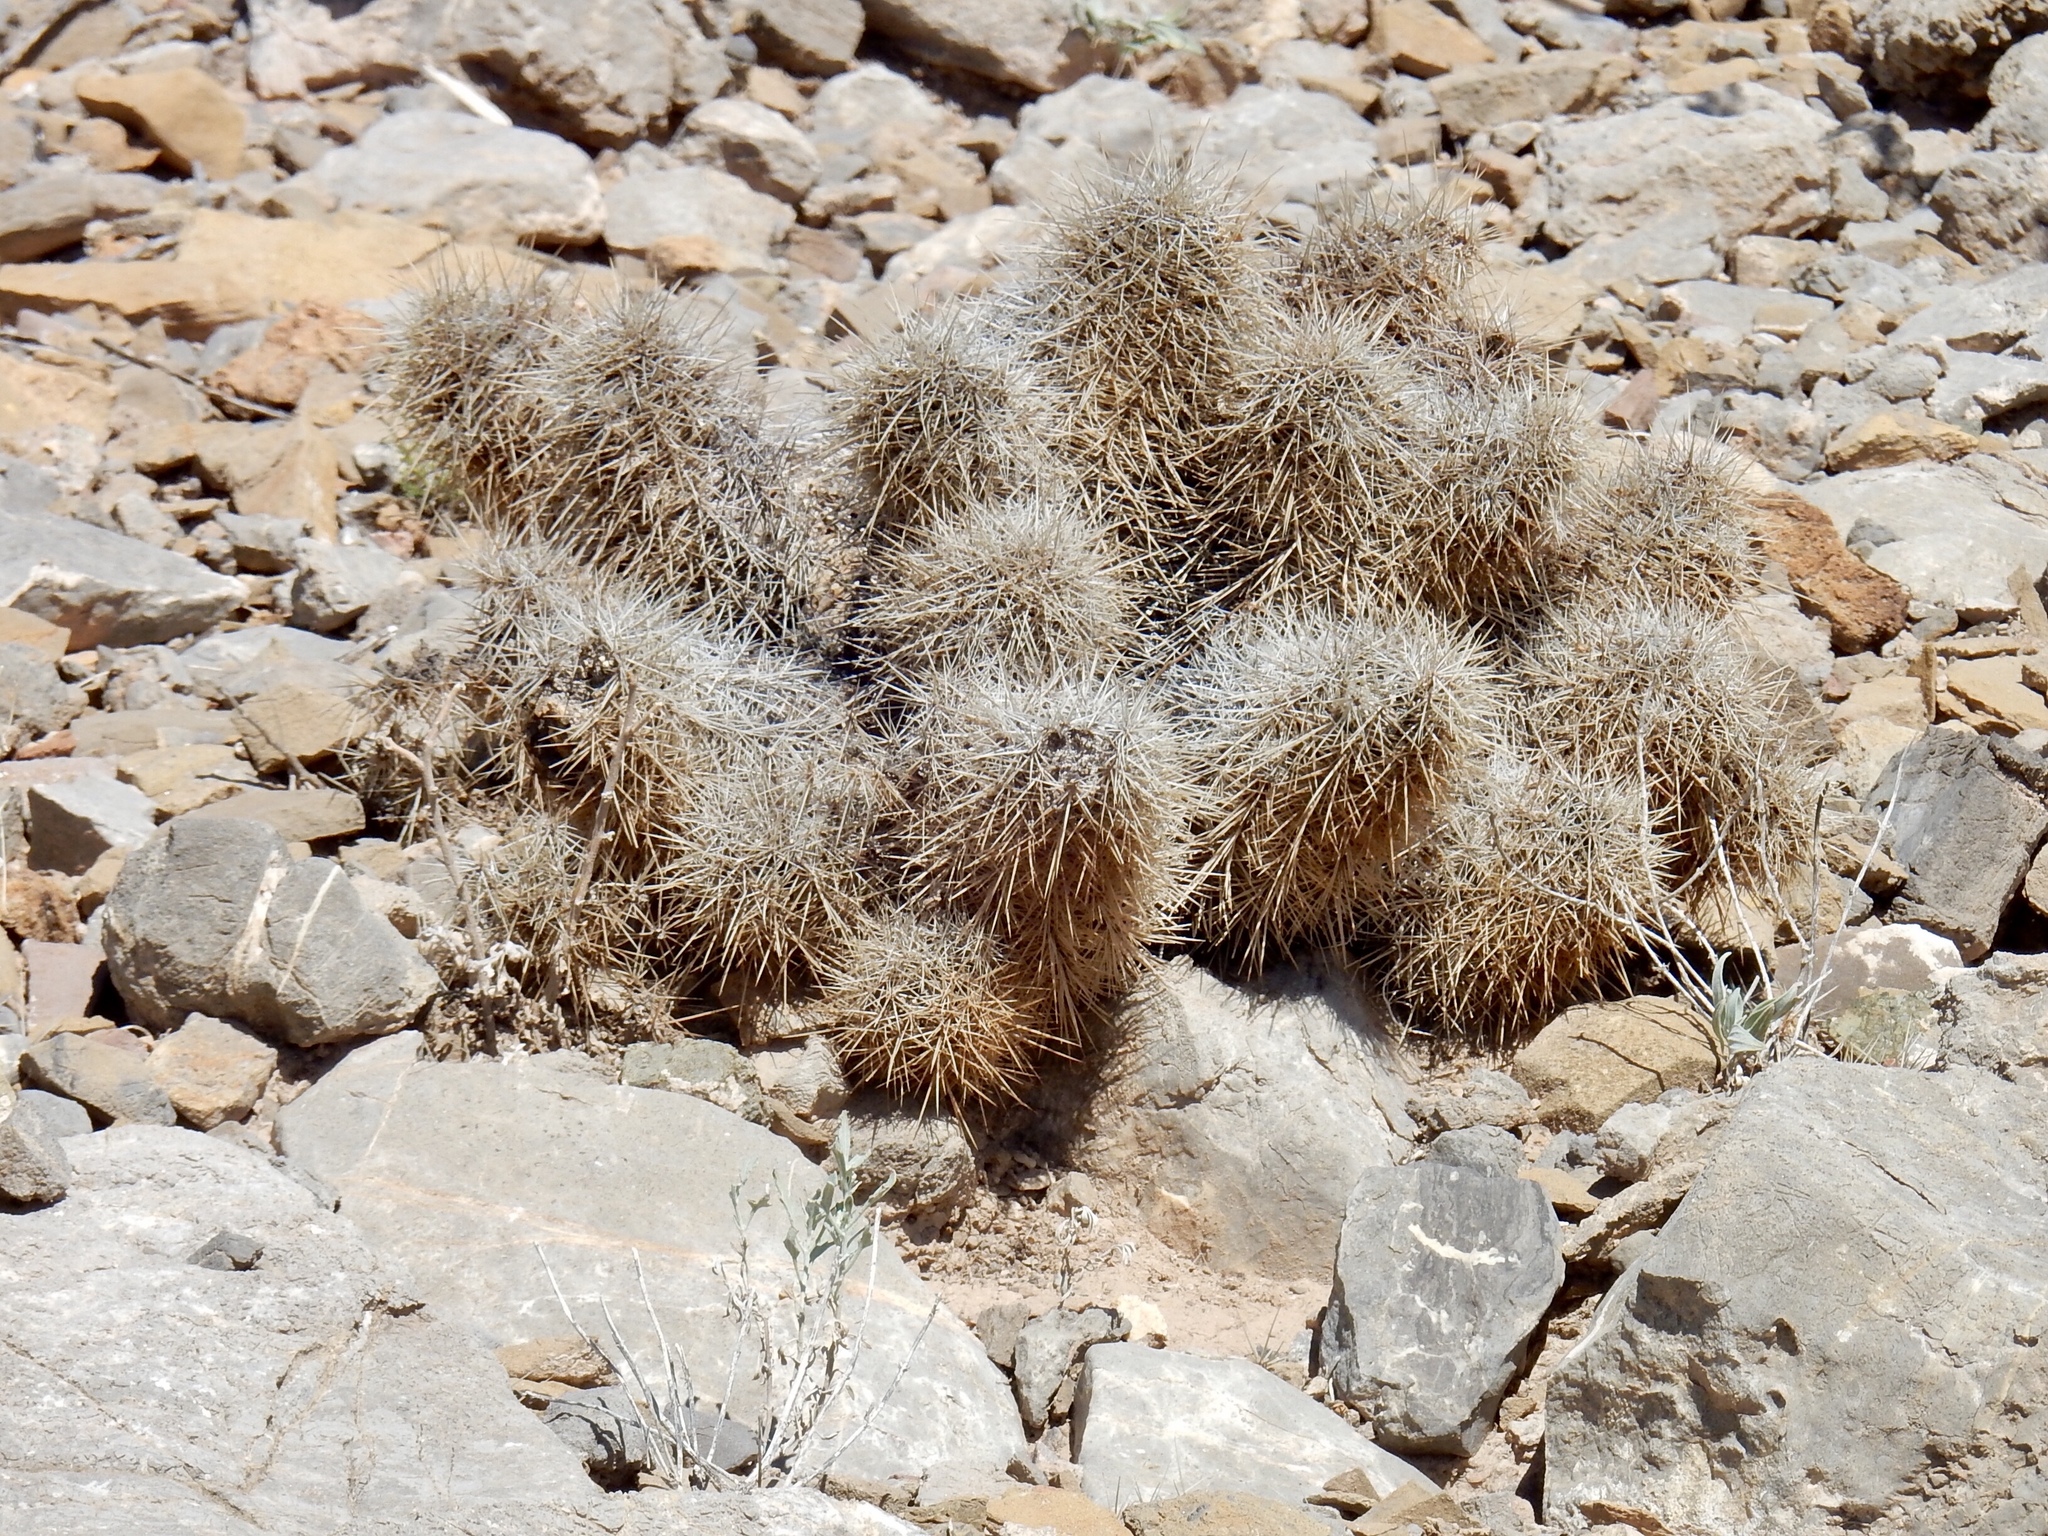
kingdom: Plantae
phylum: Tracheophyta
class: Magnoliopsida
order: Caryophyllales
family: Cactaceae
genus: Echinocereus
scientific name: Echinocereus coccineus
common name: Scarlet hedgehog cactus
